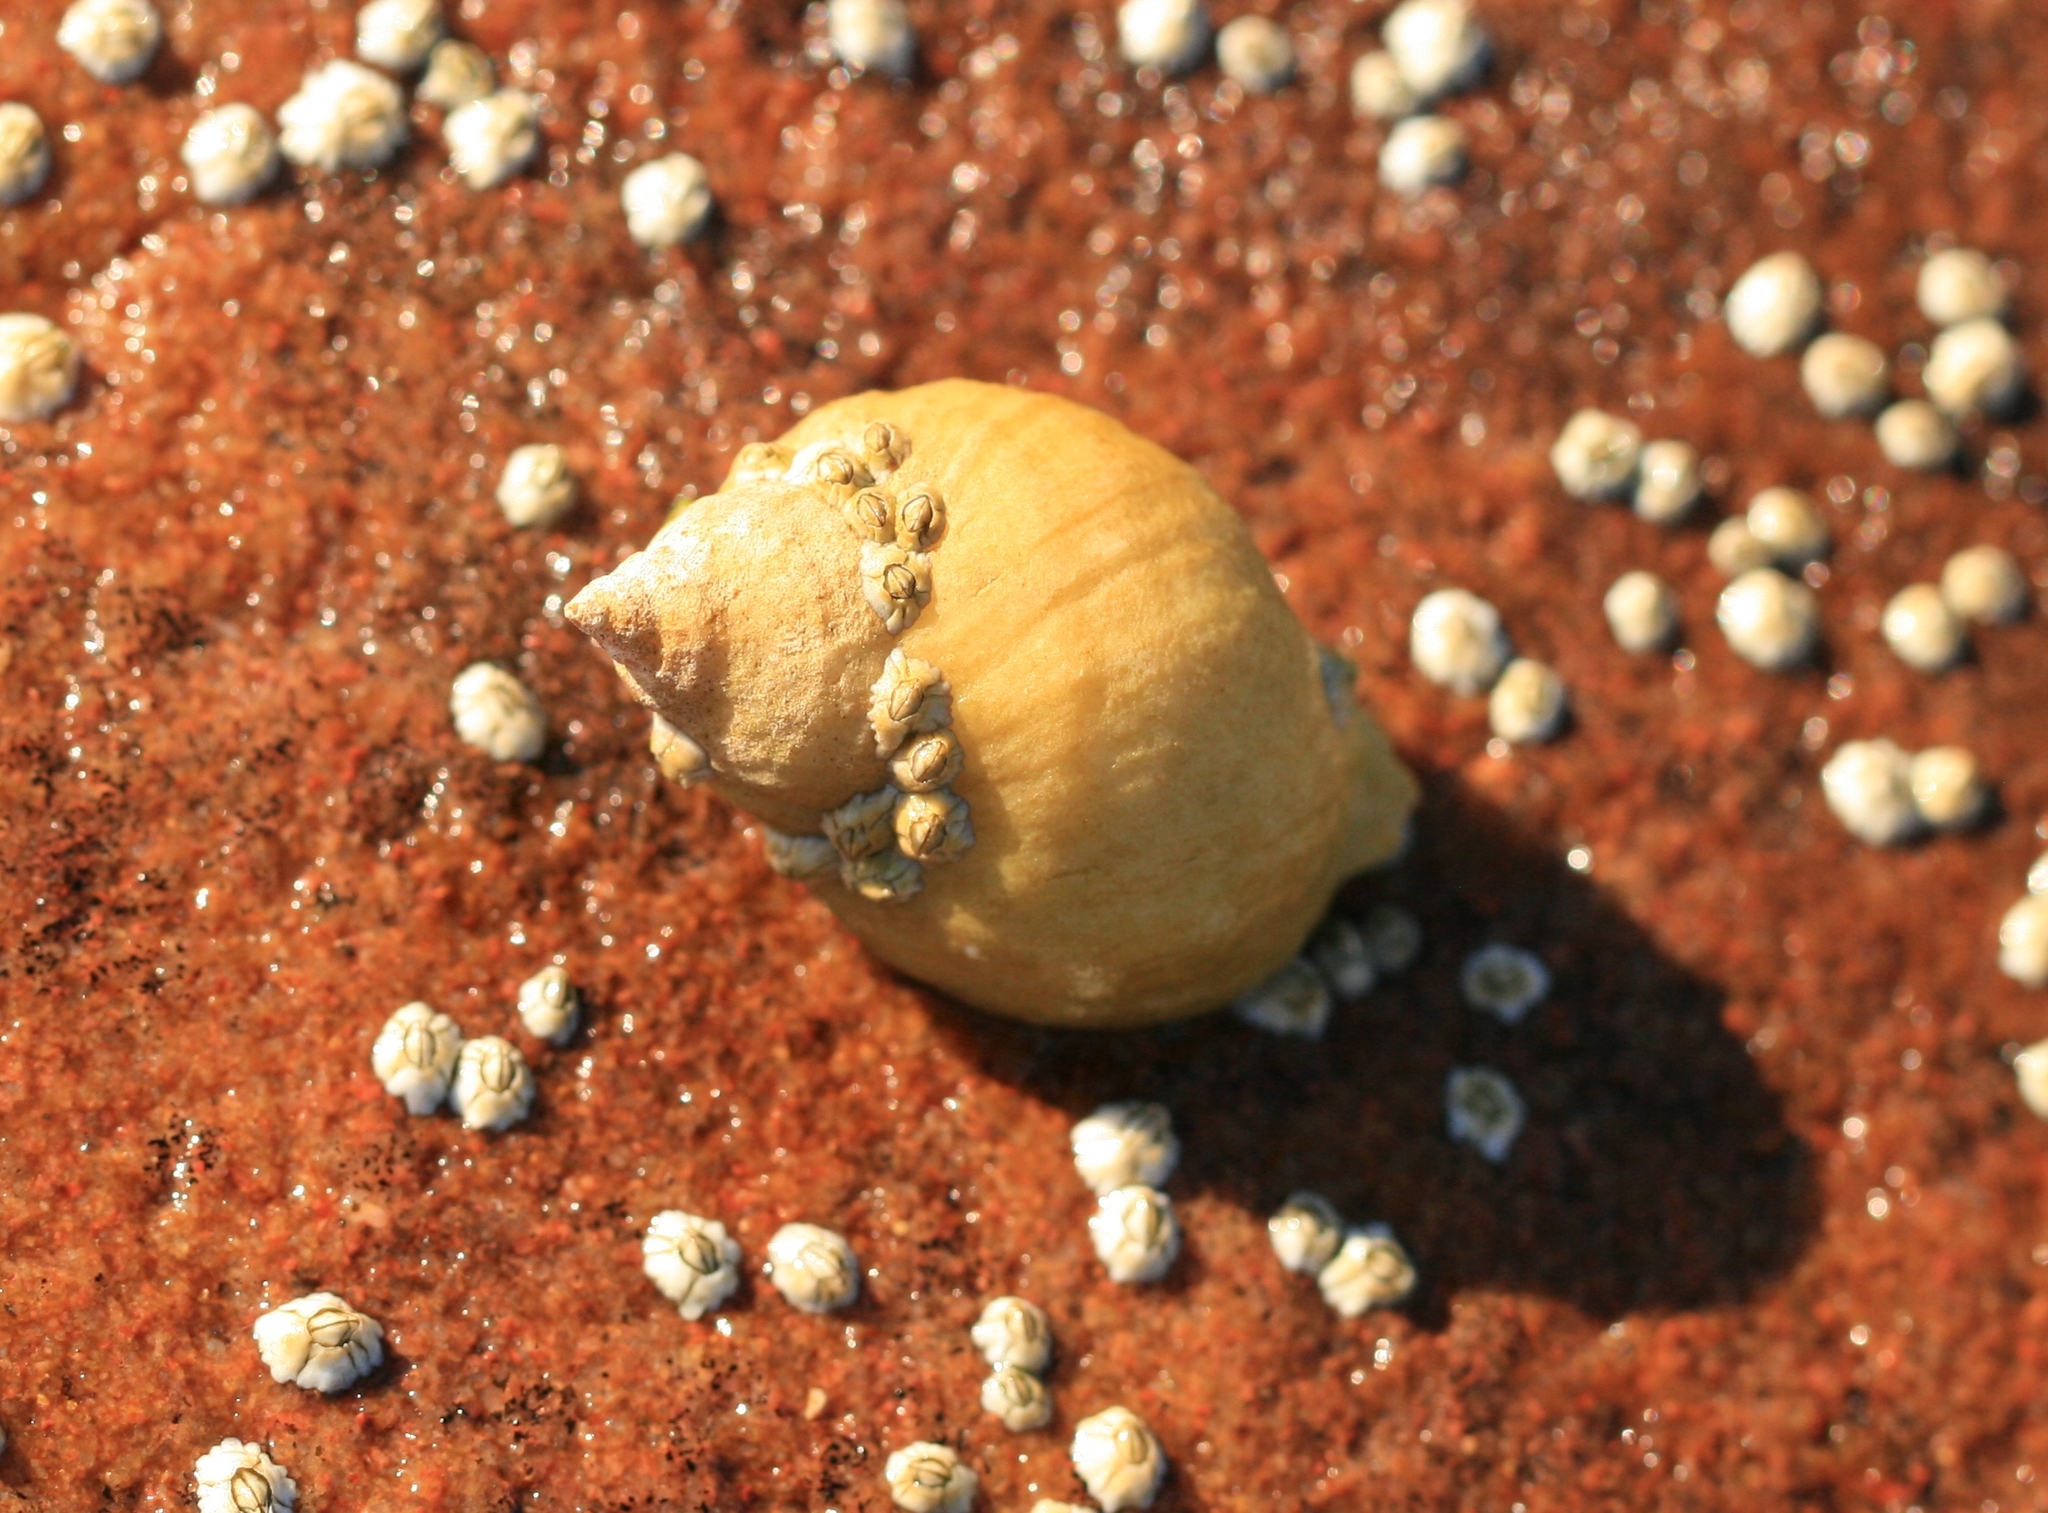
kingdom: Animalia
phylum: Mollusca
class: Gastropoda
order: Neogastropoda
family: Muricidae
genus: Nucella
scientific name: Nucella lapillus
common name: Dog whelk
